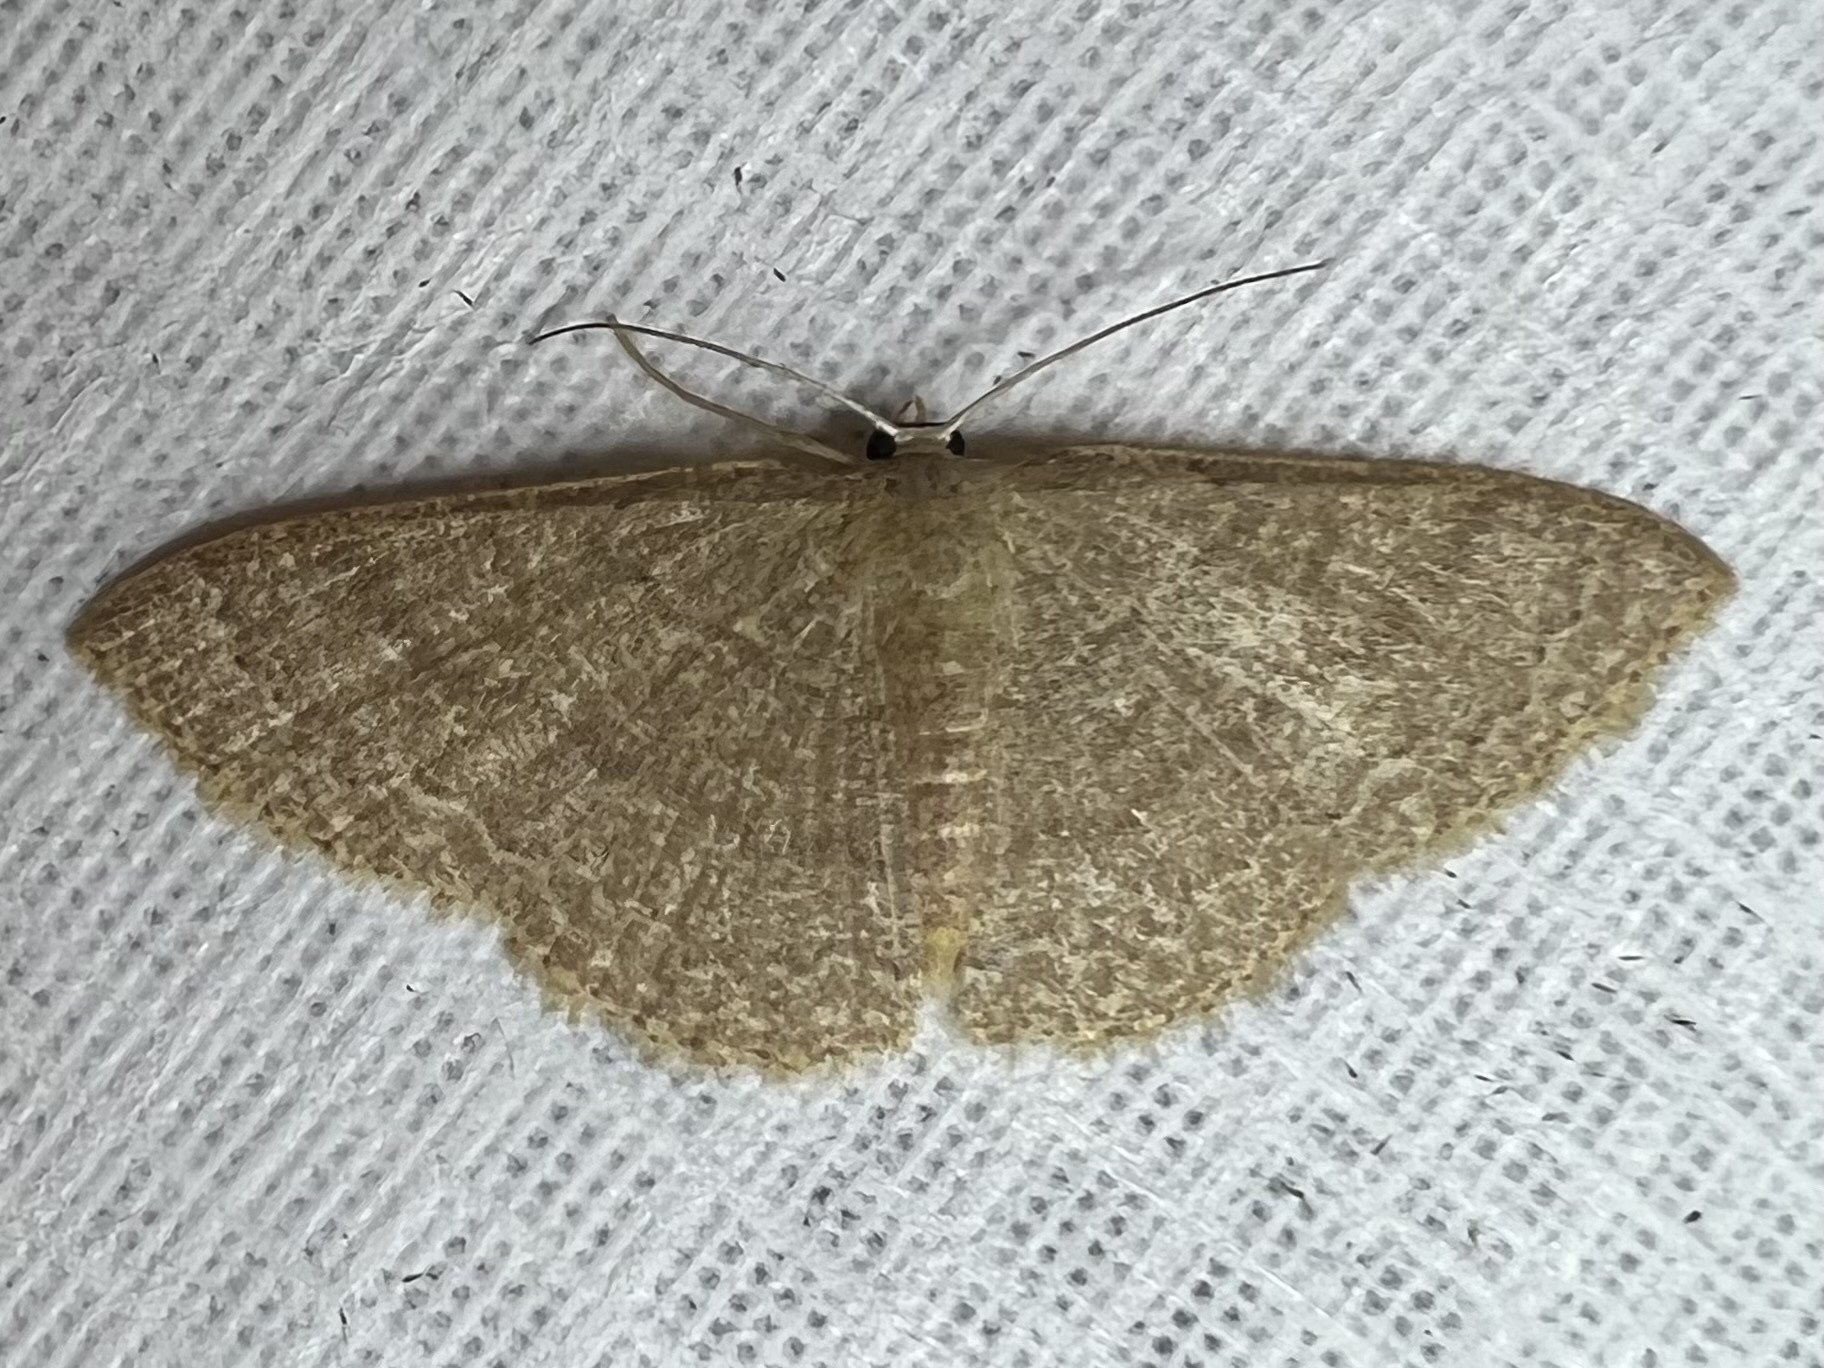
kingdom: Animalia
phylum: Arthropoda
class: Insecta
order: Lepidoptera
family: Geometridae
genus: Pleuroprucha
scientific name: Pleuroprucha insulsaria
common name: Common tan wave
